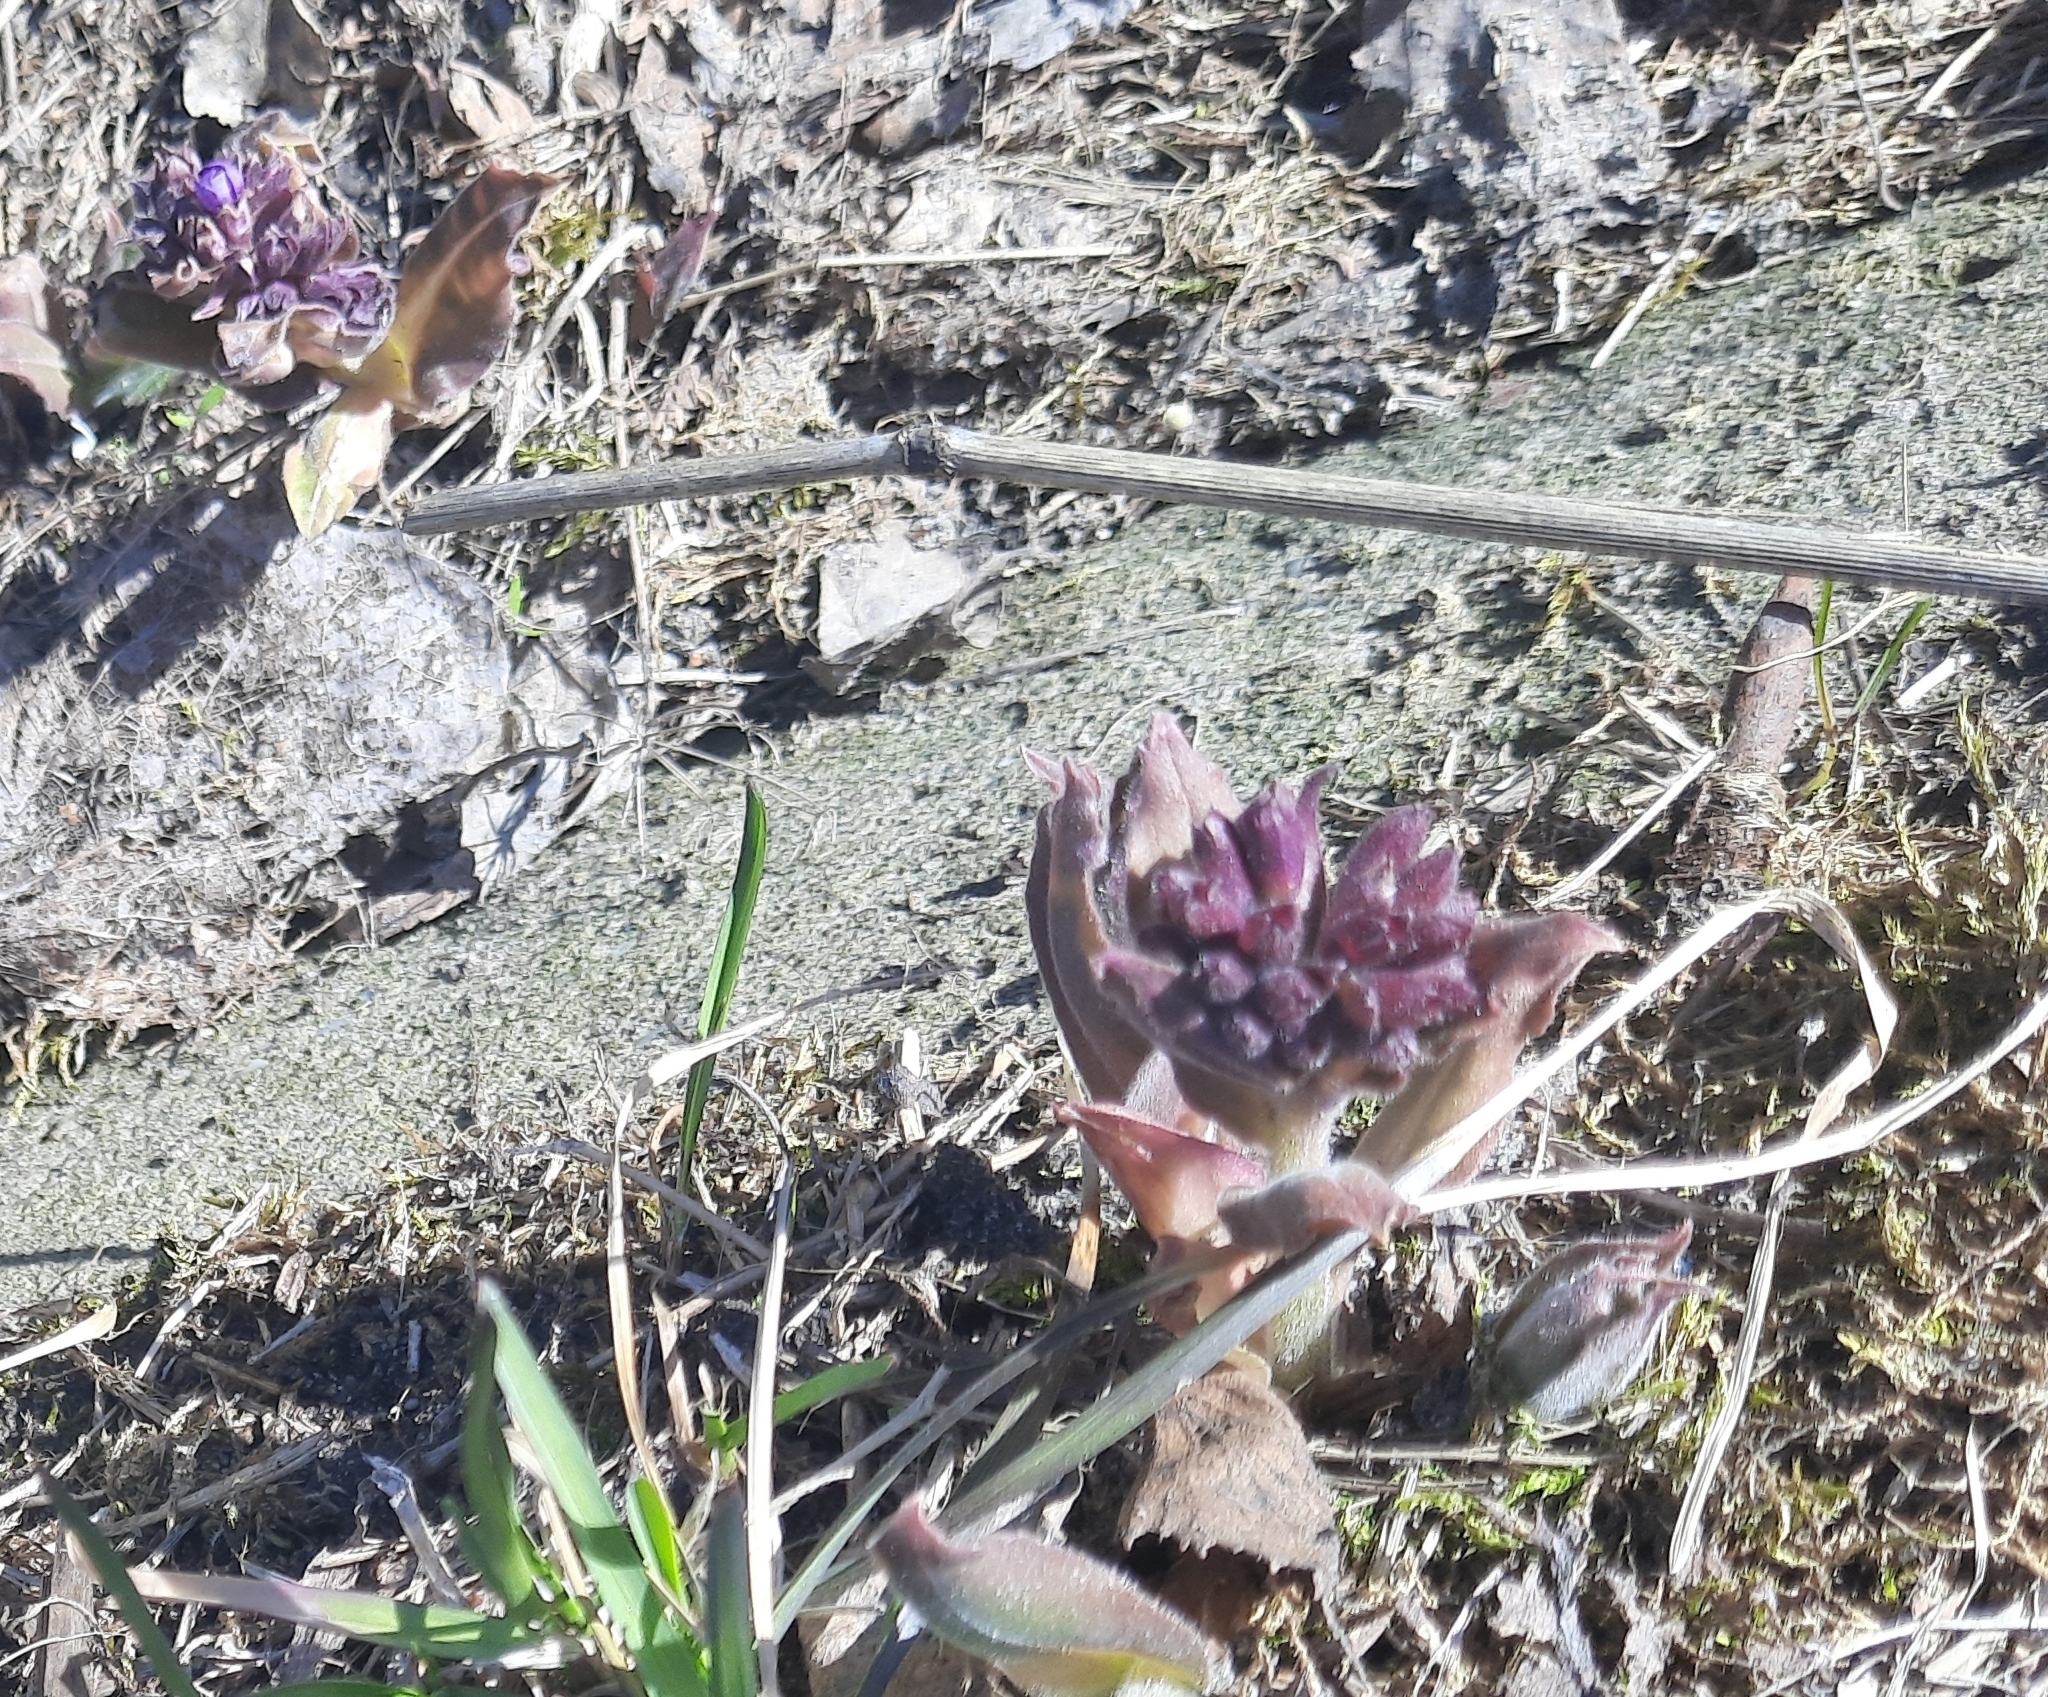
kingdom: Plantae
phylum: Tracheophyta
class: Magnoliopsida
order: Boraginales
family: Boraginaceae
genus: Pulmonaria
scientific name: Pulmonaria mollis
